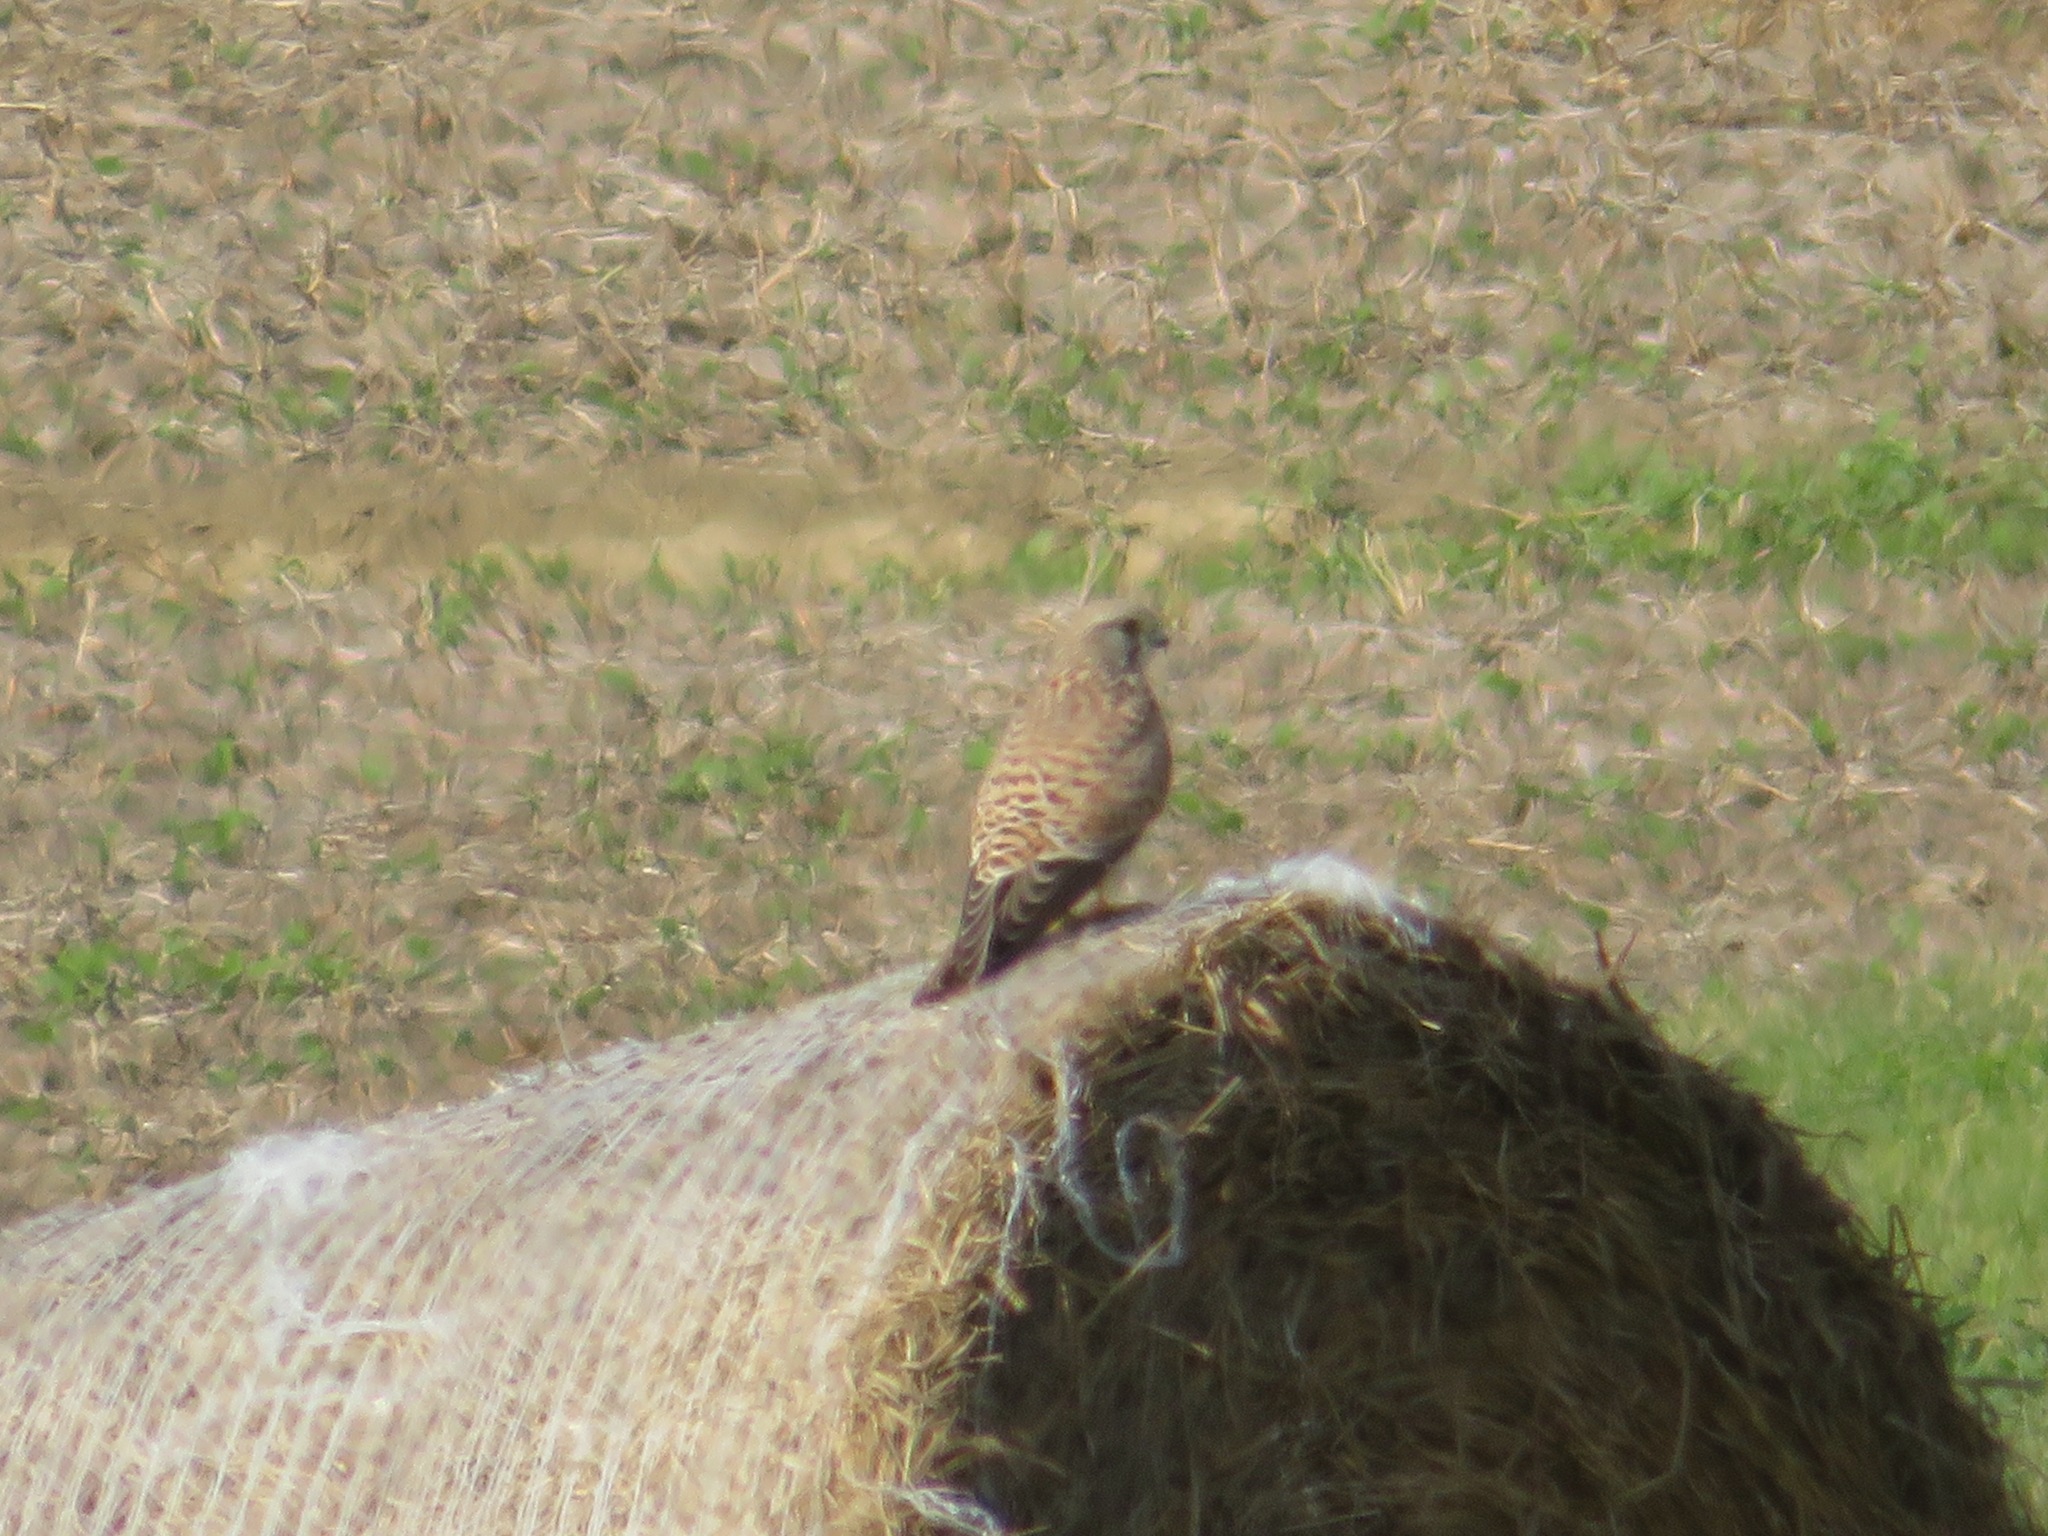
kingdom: Animalia
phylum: Chordata
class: Aves
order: Falconiformes
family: Falconidae
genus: Falco
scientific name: Falco tinnunculus
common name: Common kestrel
